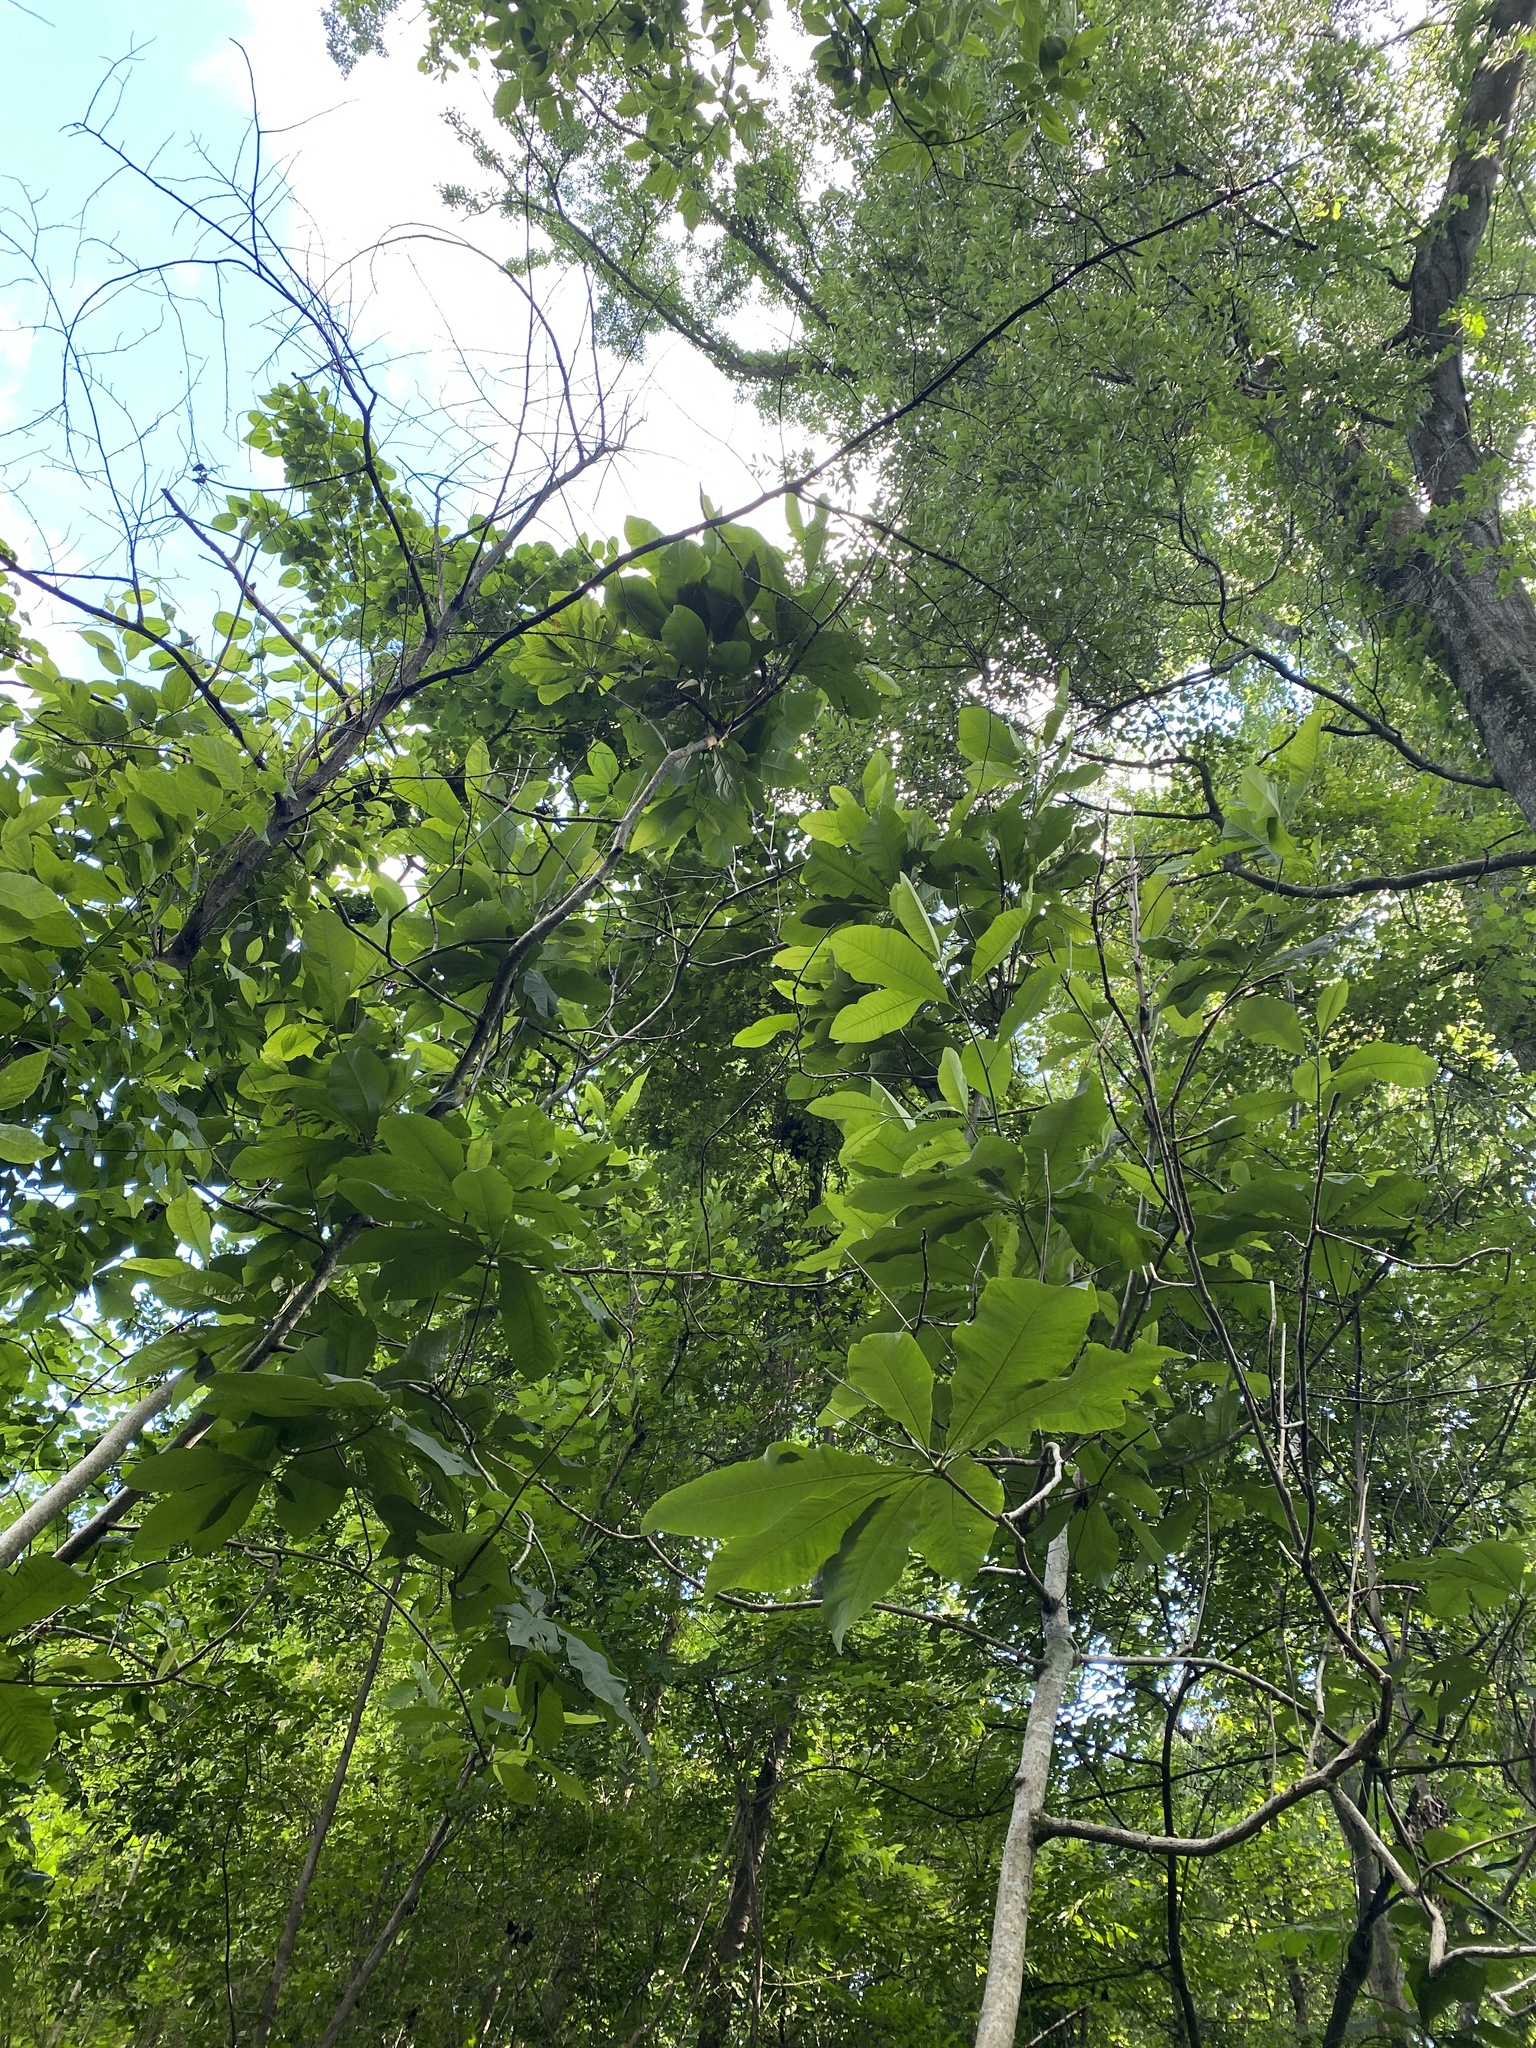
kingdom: Plantae
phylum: Tracheophyta
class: Magnoliopsida
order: Magnoliales
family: Magnoliaceae
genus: Magnolia
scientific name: Magnolia tripetala
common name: Umbrella magnolia
